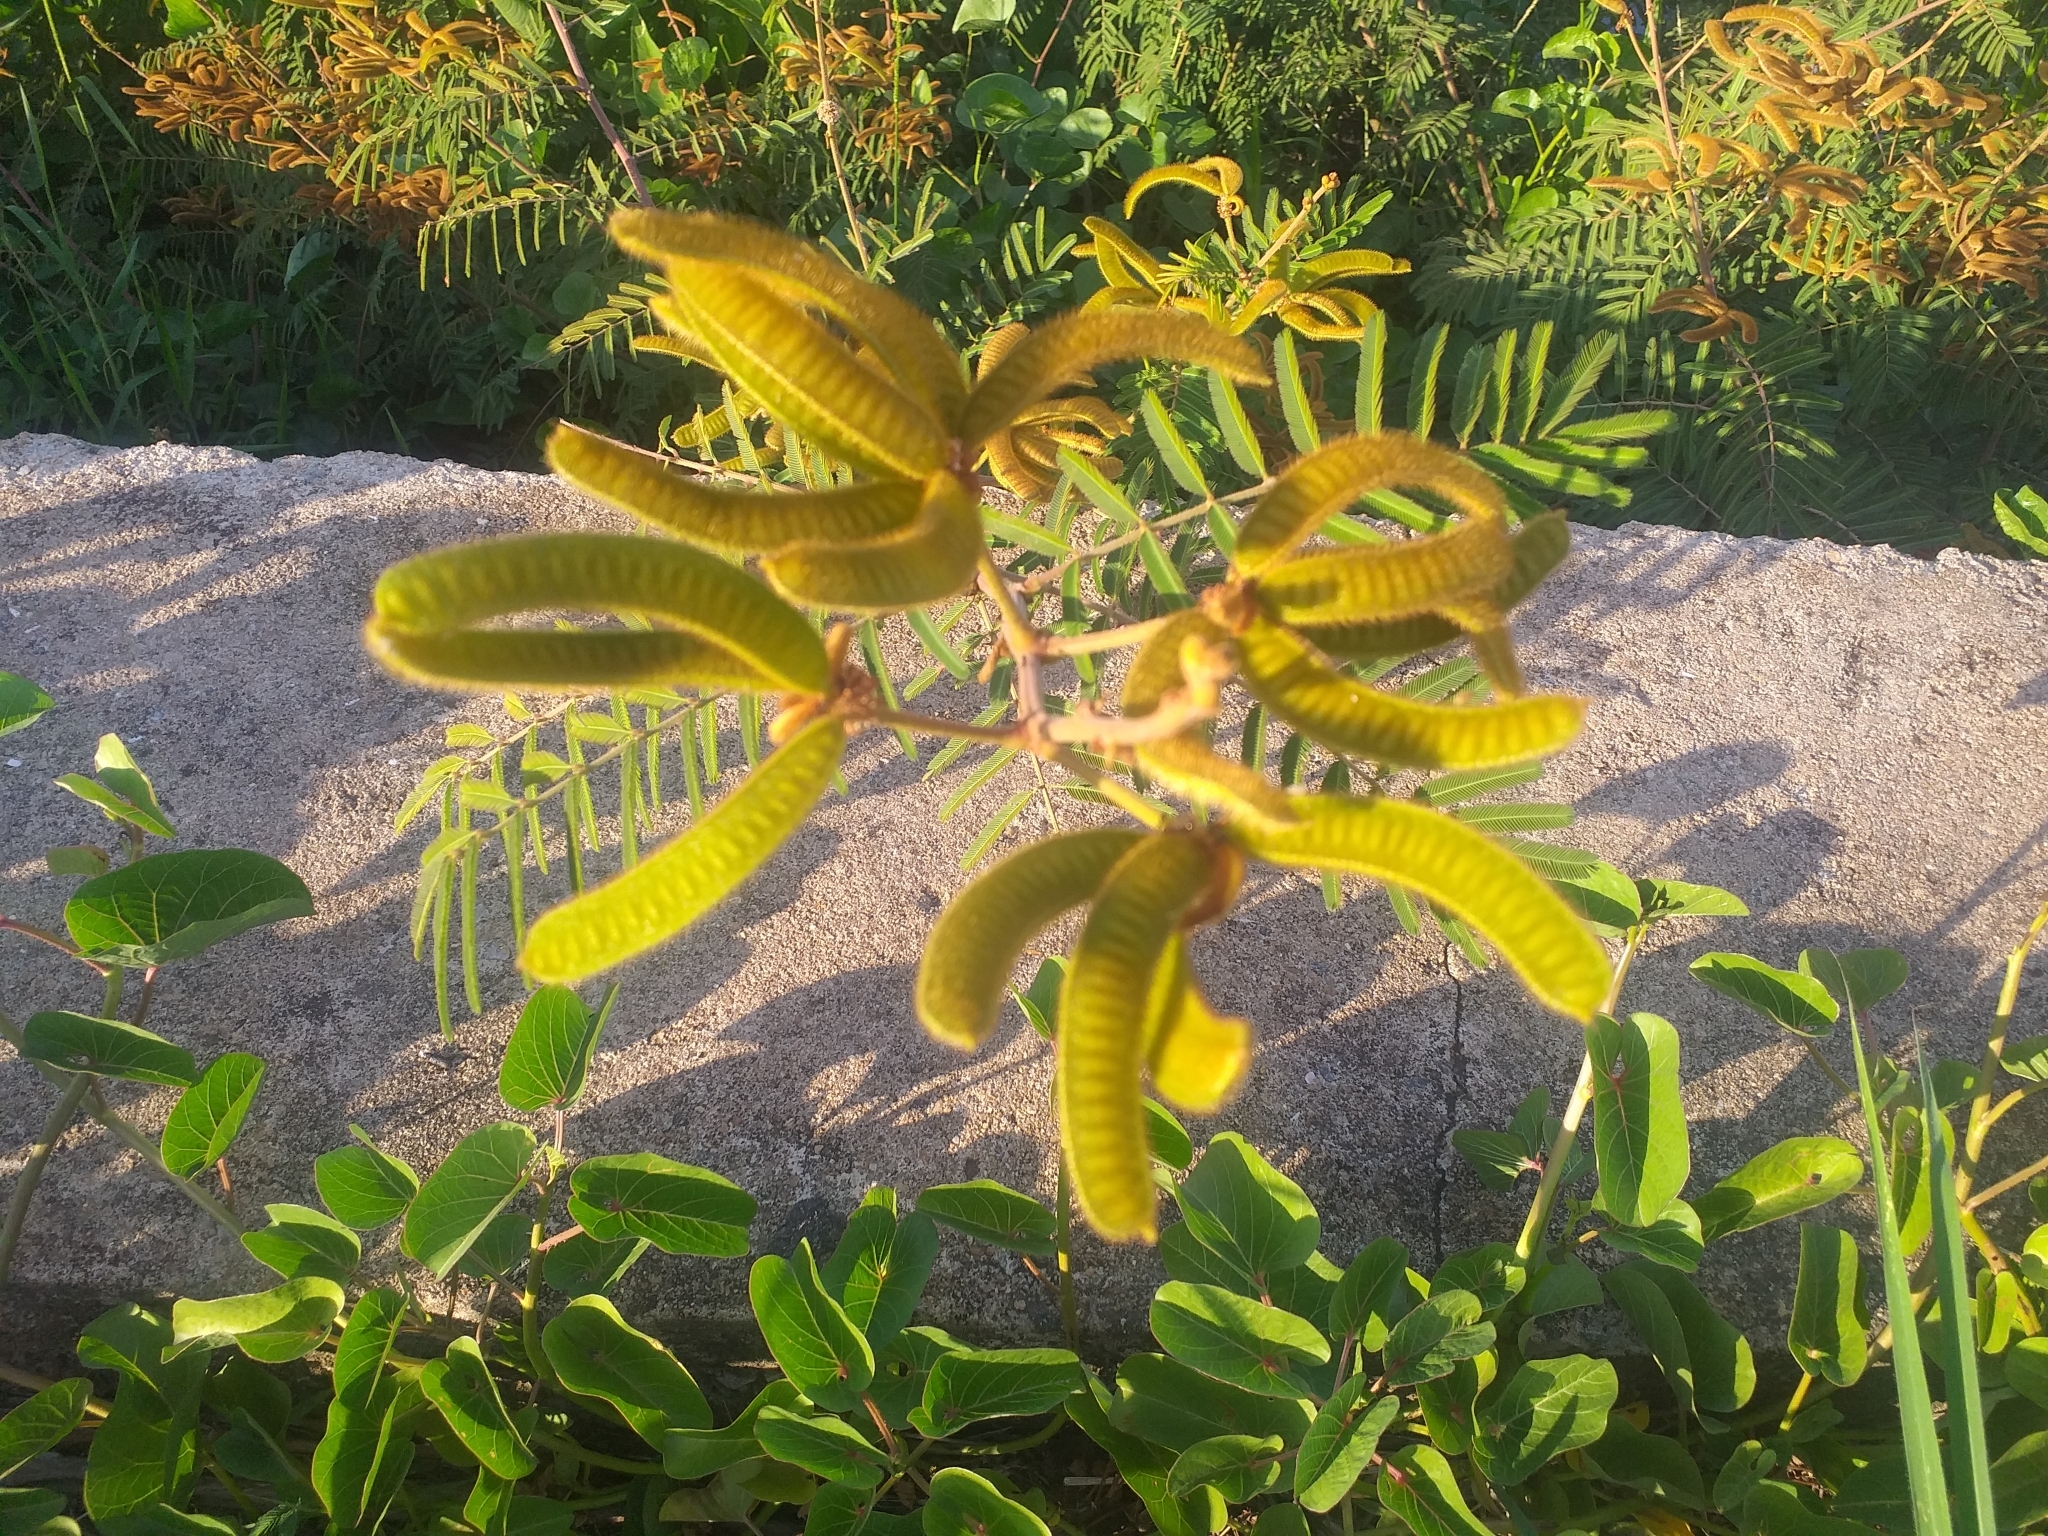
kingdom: Plantae
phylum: Tracheophyta
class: Magnoliopsida
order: Fabales
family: Fabaceae
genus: Mimosa
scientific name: Mimosa pigra
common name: Black mimosa
